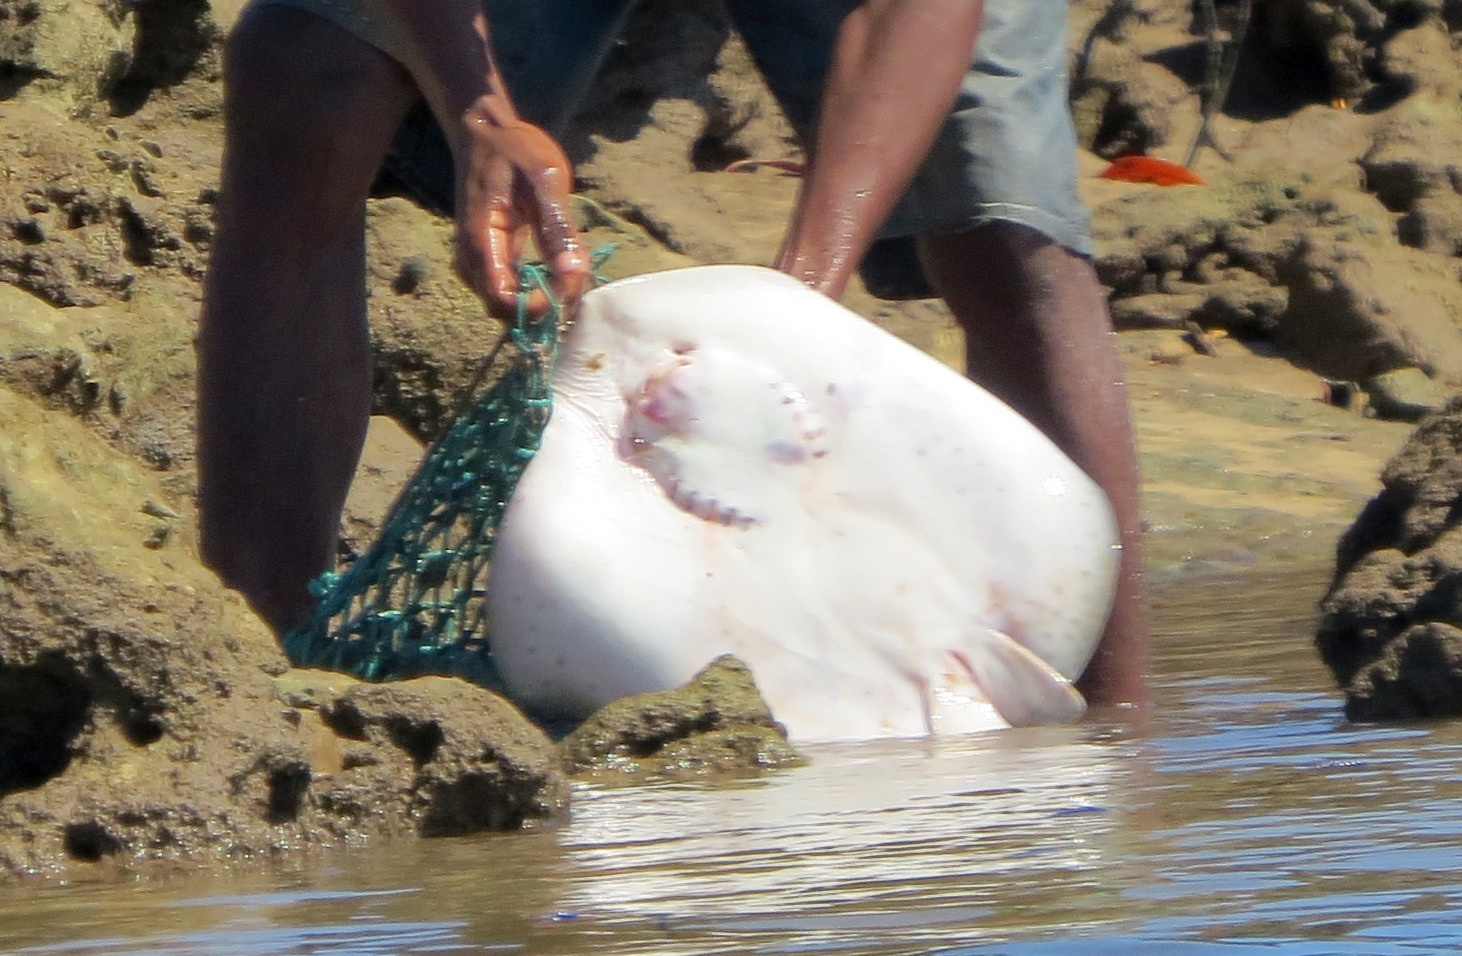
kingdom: Animalia
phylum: Chordata
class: Elasmobranchii
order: Myliobatiformes
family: Dasyatidae
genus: Himantura
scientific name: Himantura uarnak
